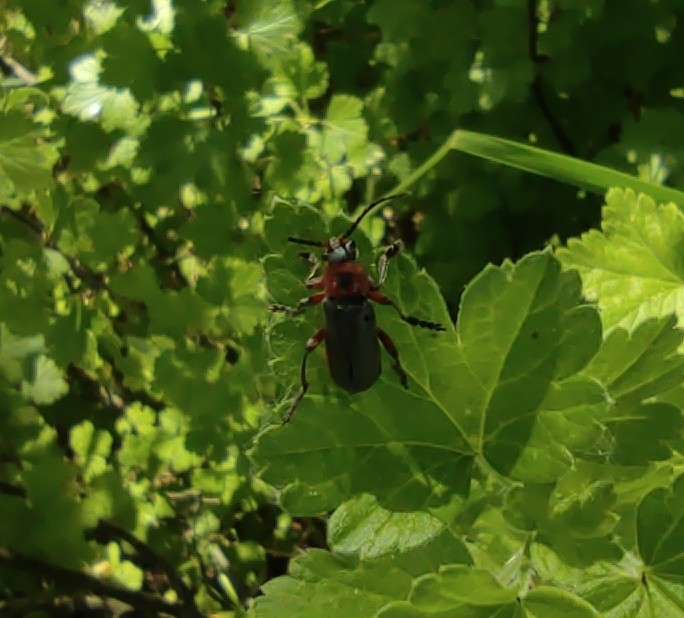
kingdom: Animalia
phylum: Arthropoda
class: Insecta
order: Coleoptera
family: Cantharidae
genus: Cantharis
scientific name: Cantharis rustica
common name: Soldier beetle
